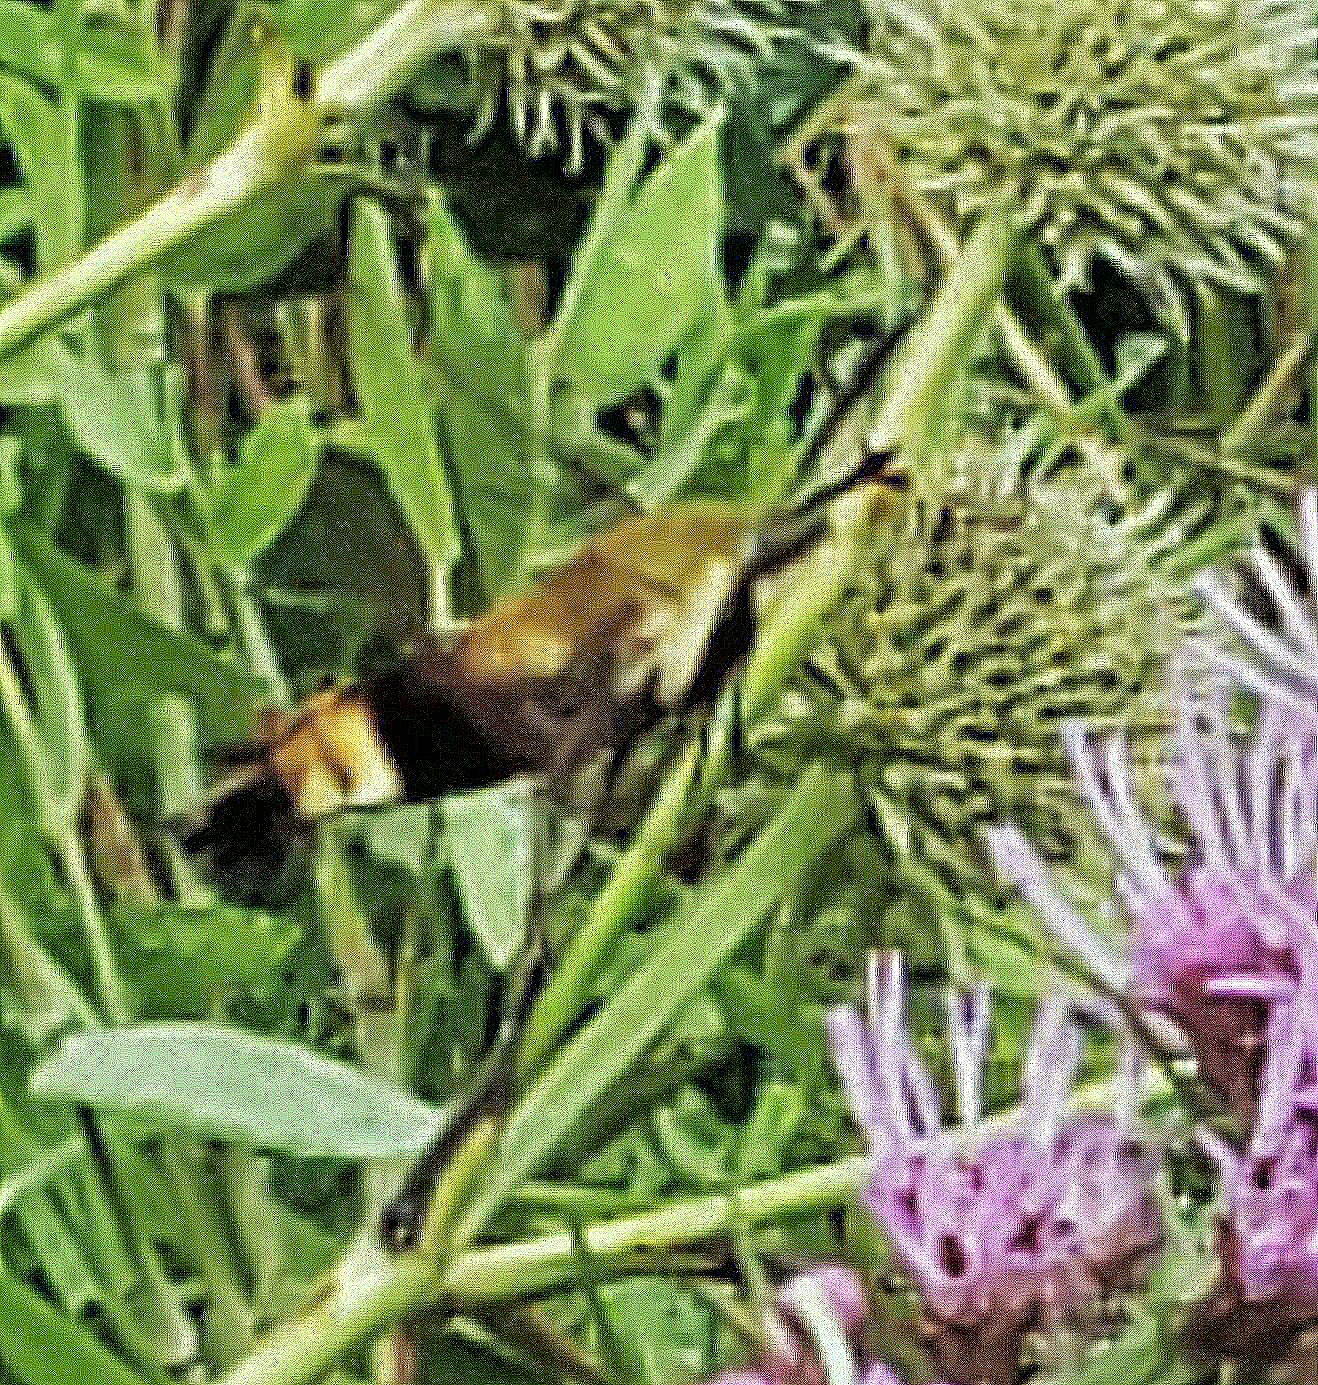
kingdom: Animalia
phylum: Arthropoda
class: Insecta
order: Lepidoptera
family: Sphingidae
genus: Hemaris
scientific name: Hemaris diffinis
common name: Bumblebee moth
